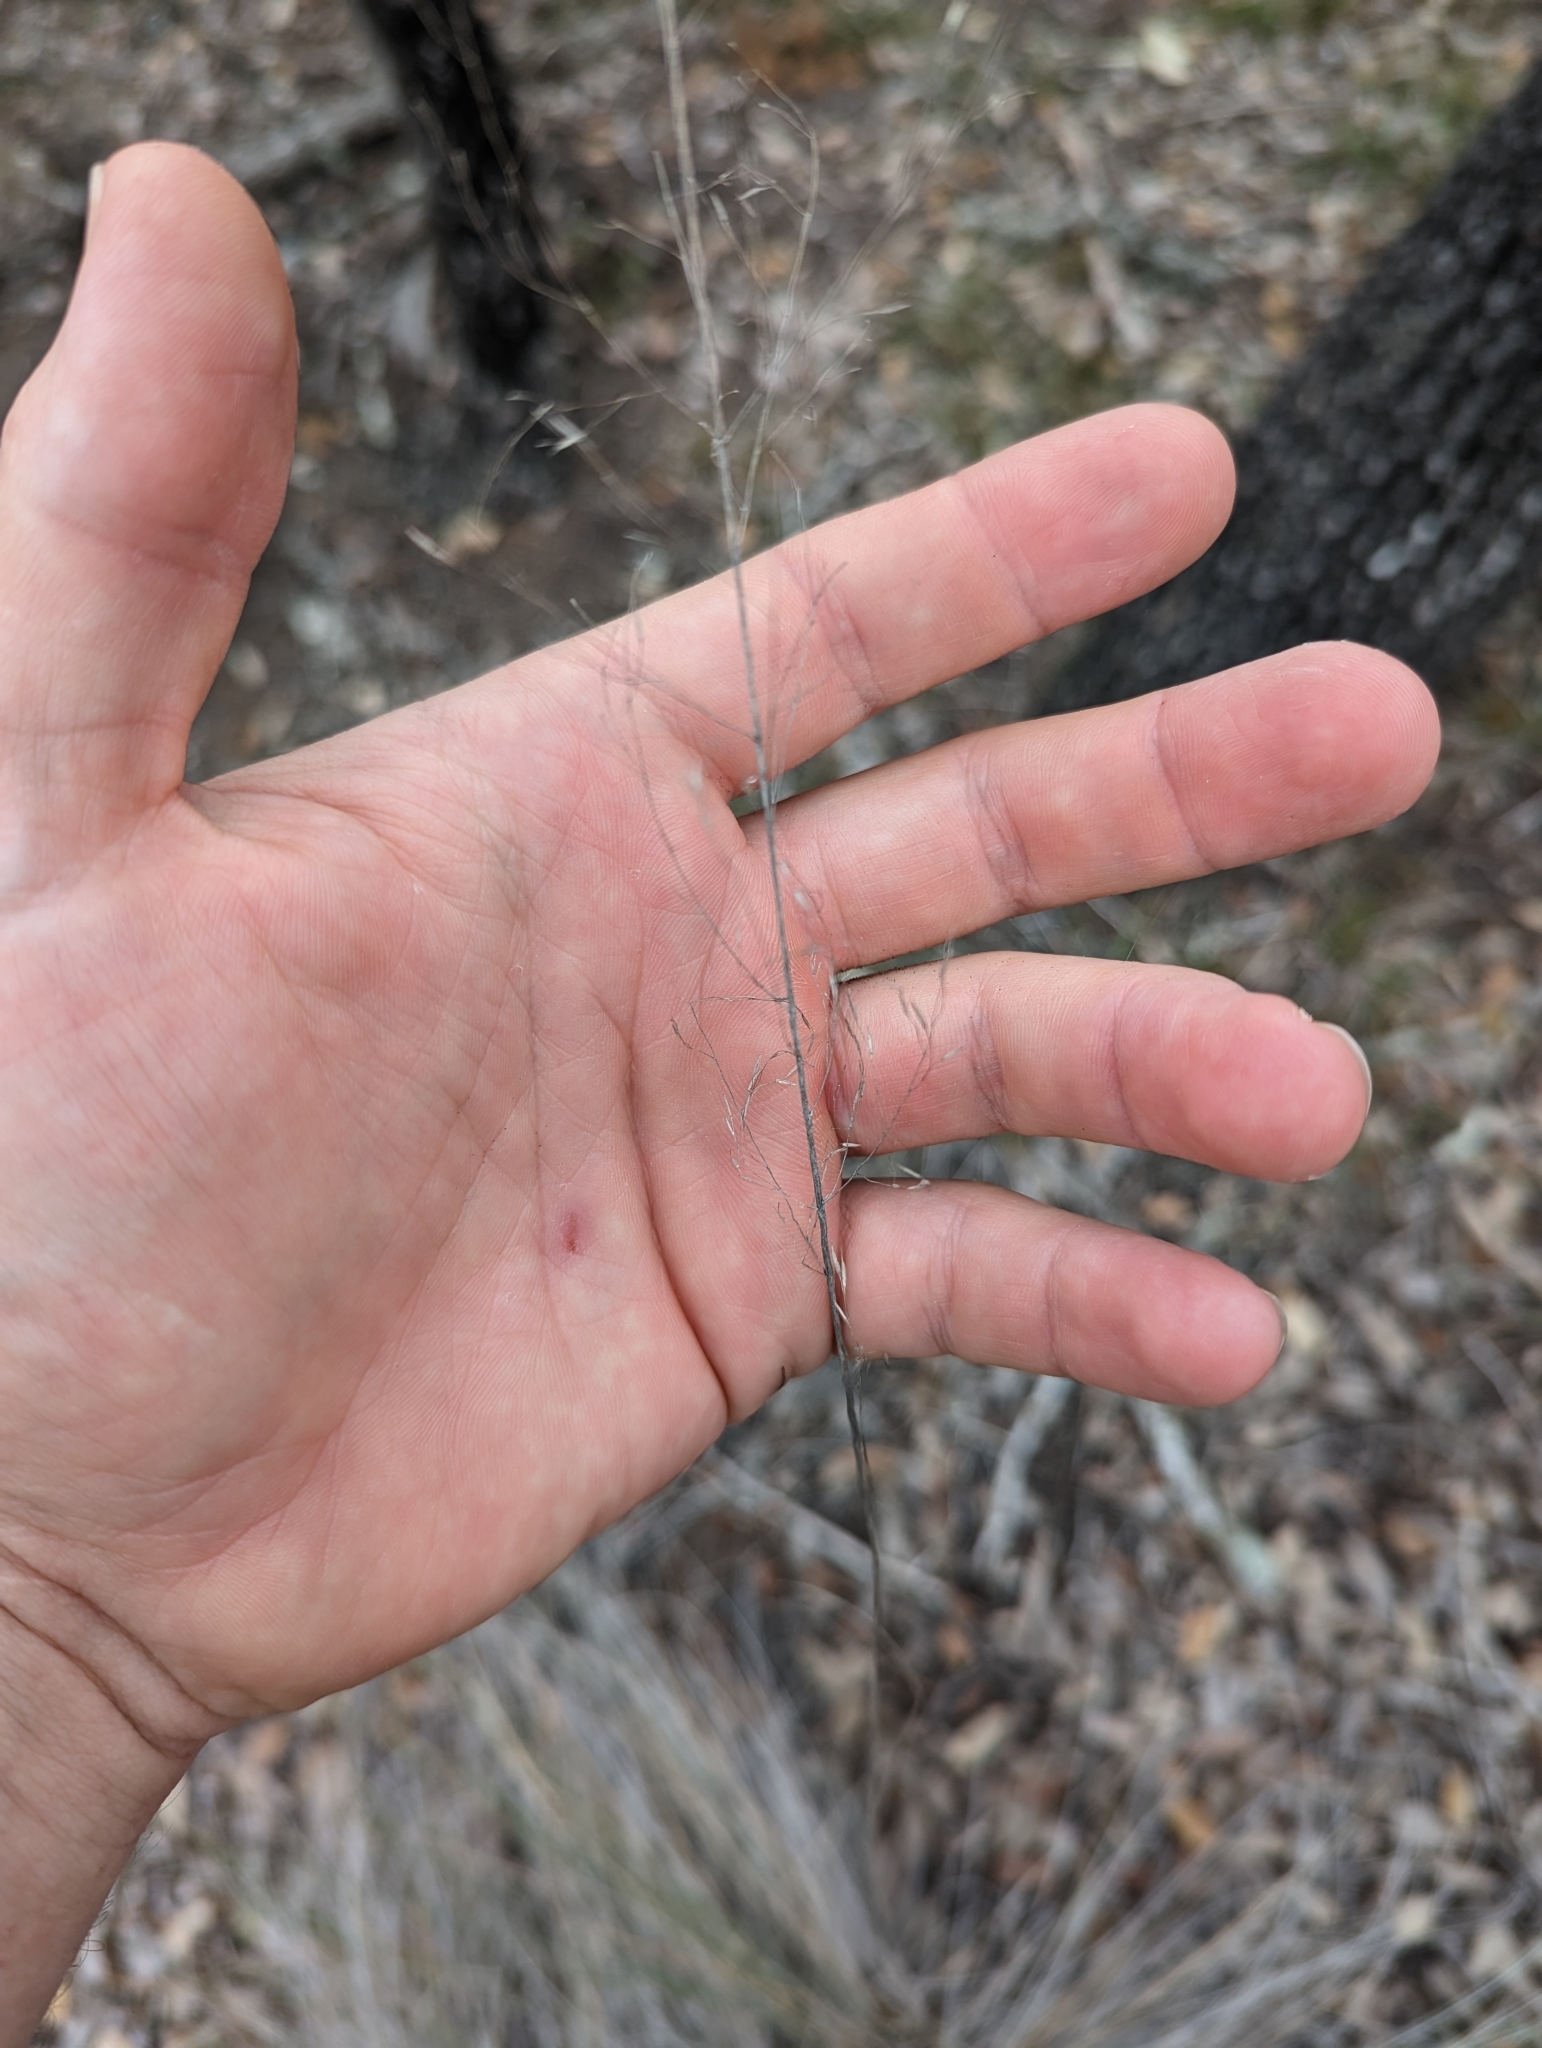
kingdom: Plantae
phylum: Tracheophyta
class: Liliopsida
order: Poales
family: Poaceae
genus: Muhlenbergia
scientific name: Muhlenbergia involuta
